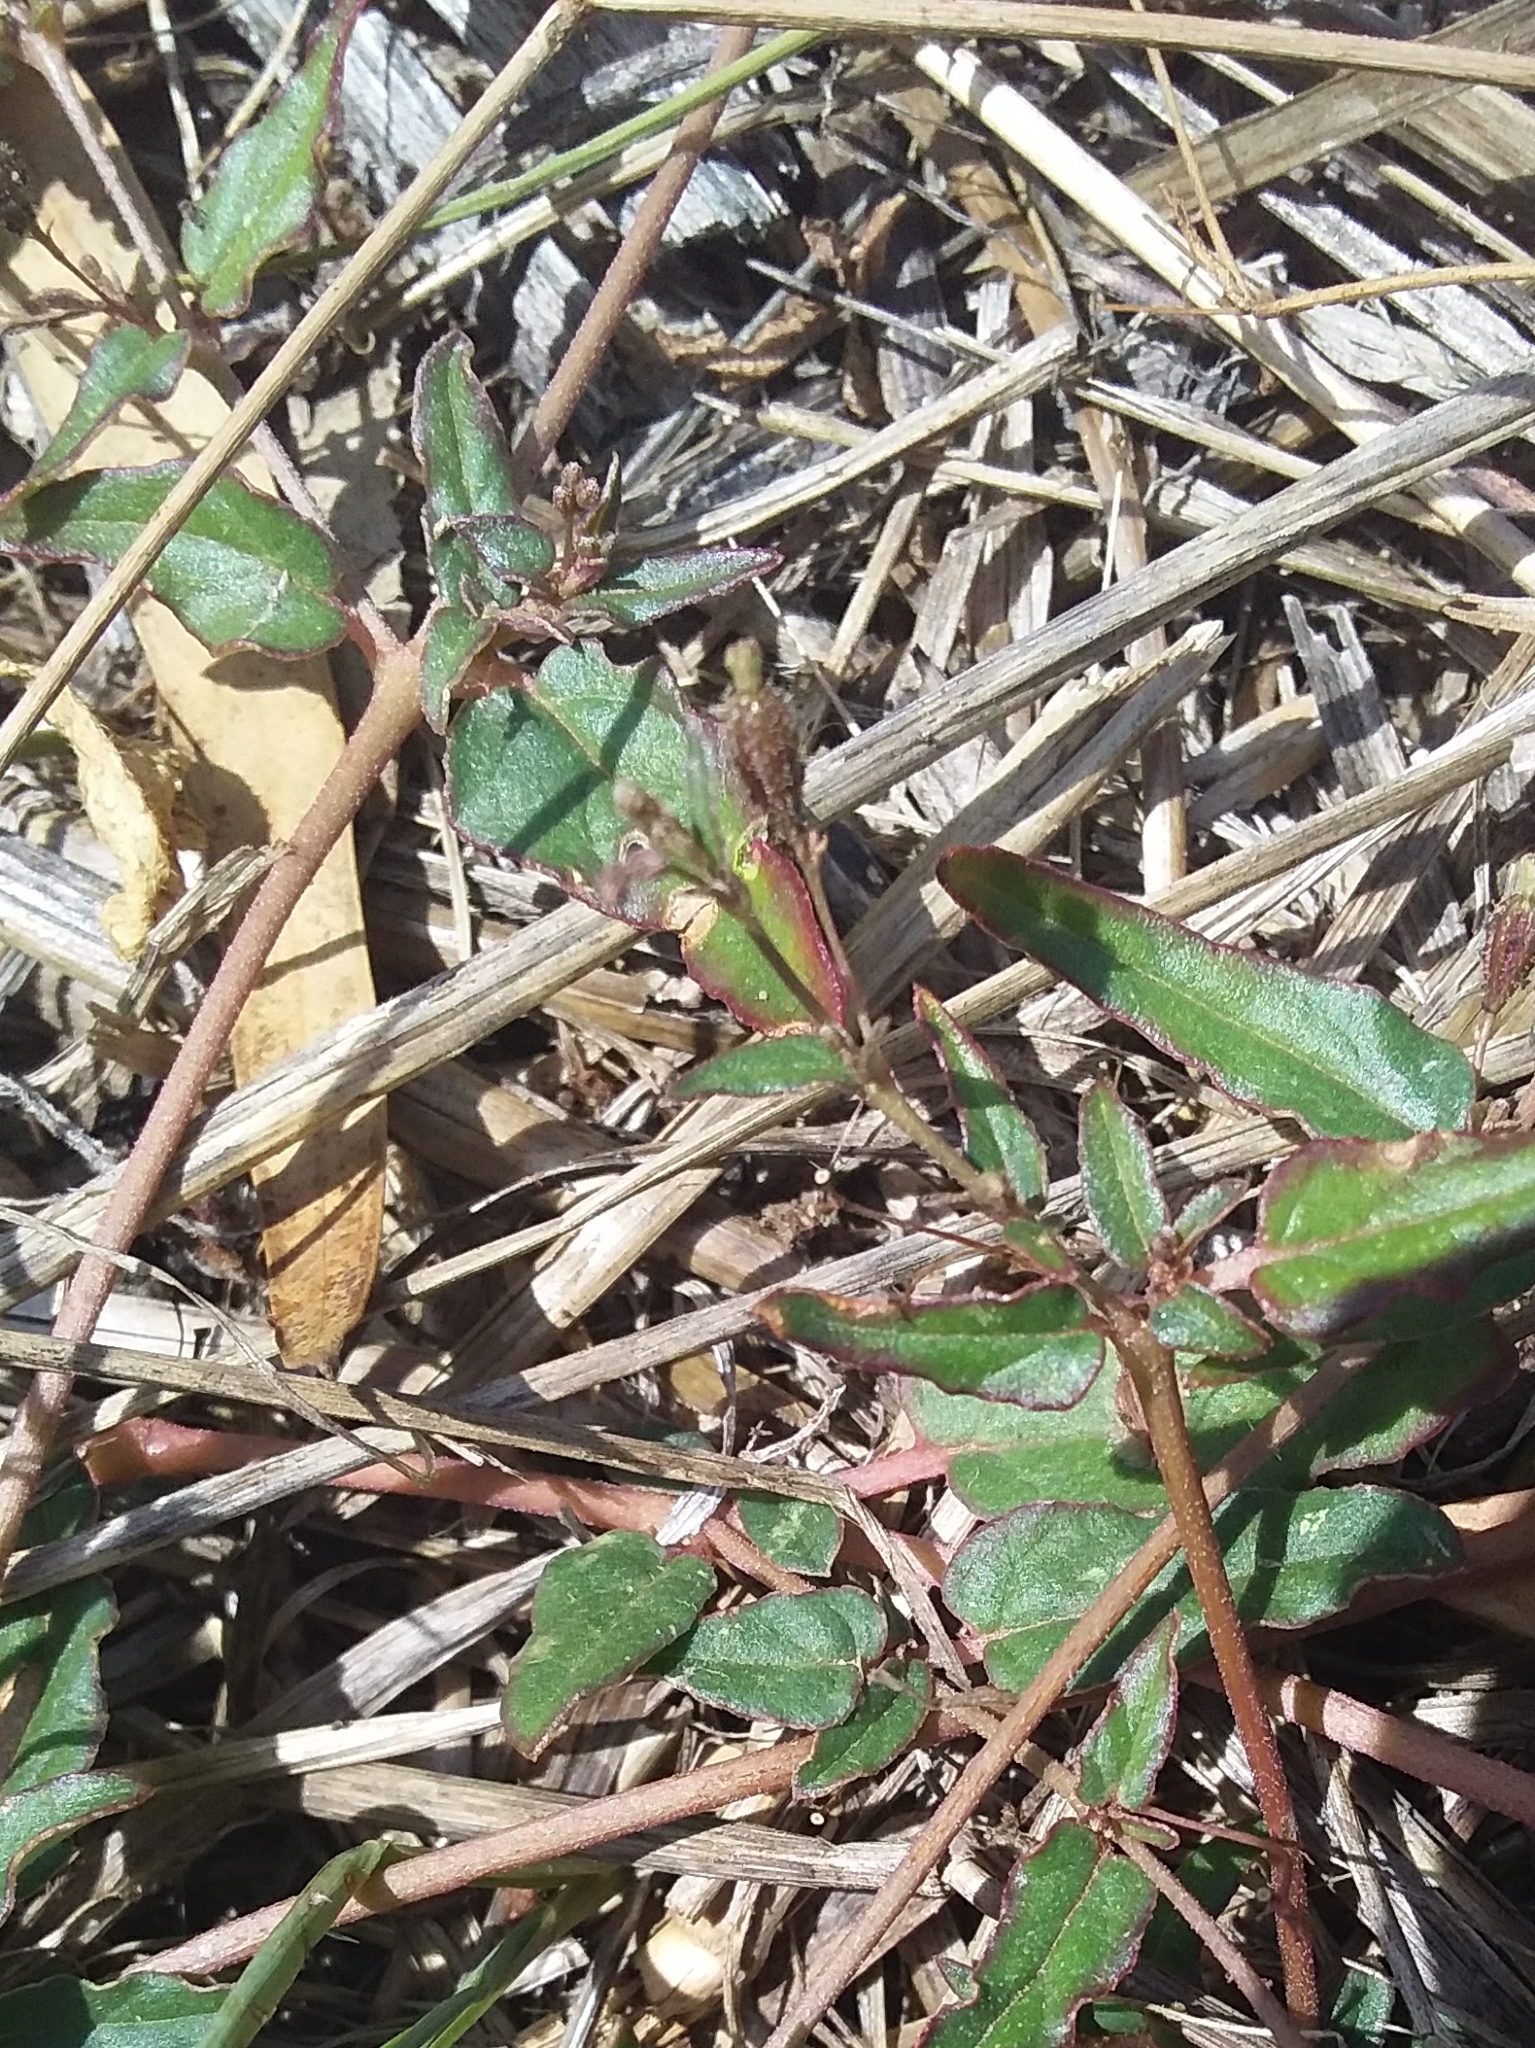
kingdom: Plantae
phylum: Tracheophyta
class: Magnoliopsida
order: Caryophyllales
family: Nyctaginaceae
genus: Boerhavia
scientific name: Boerhavia dominii
